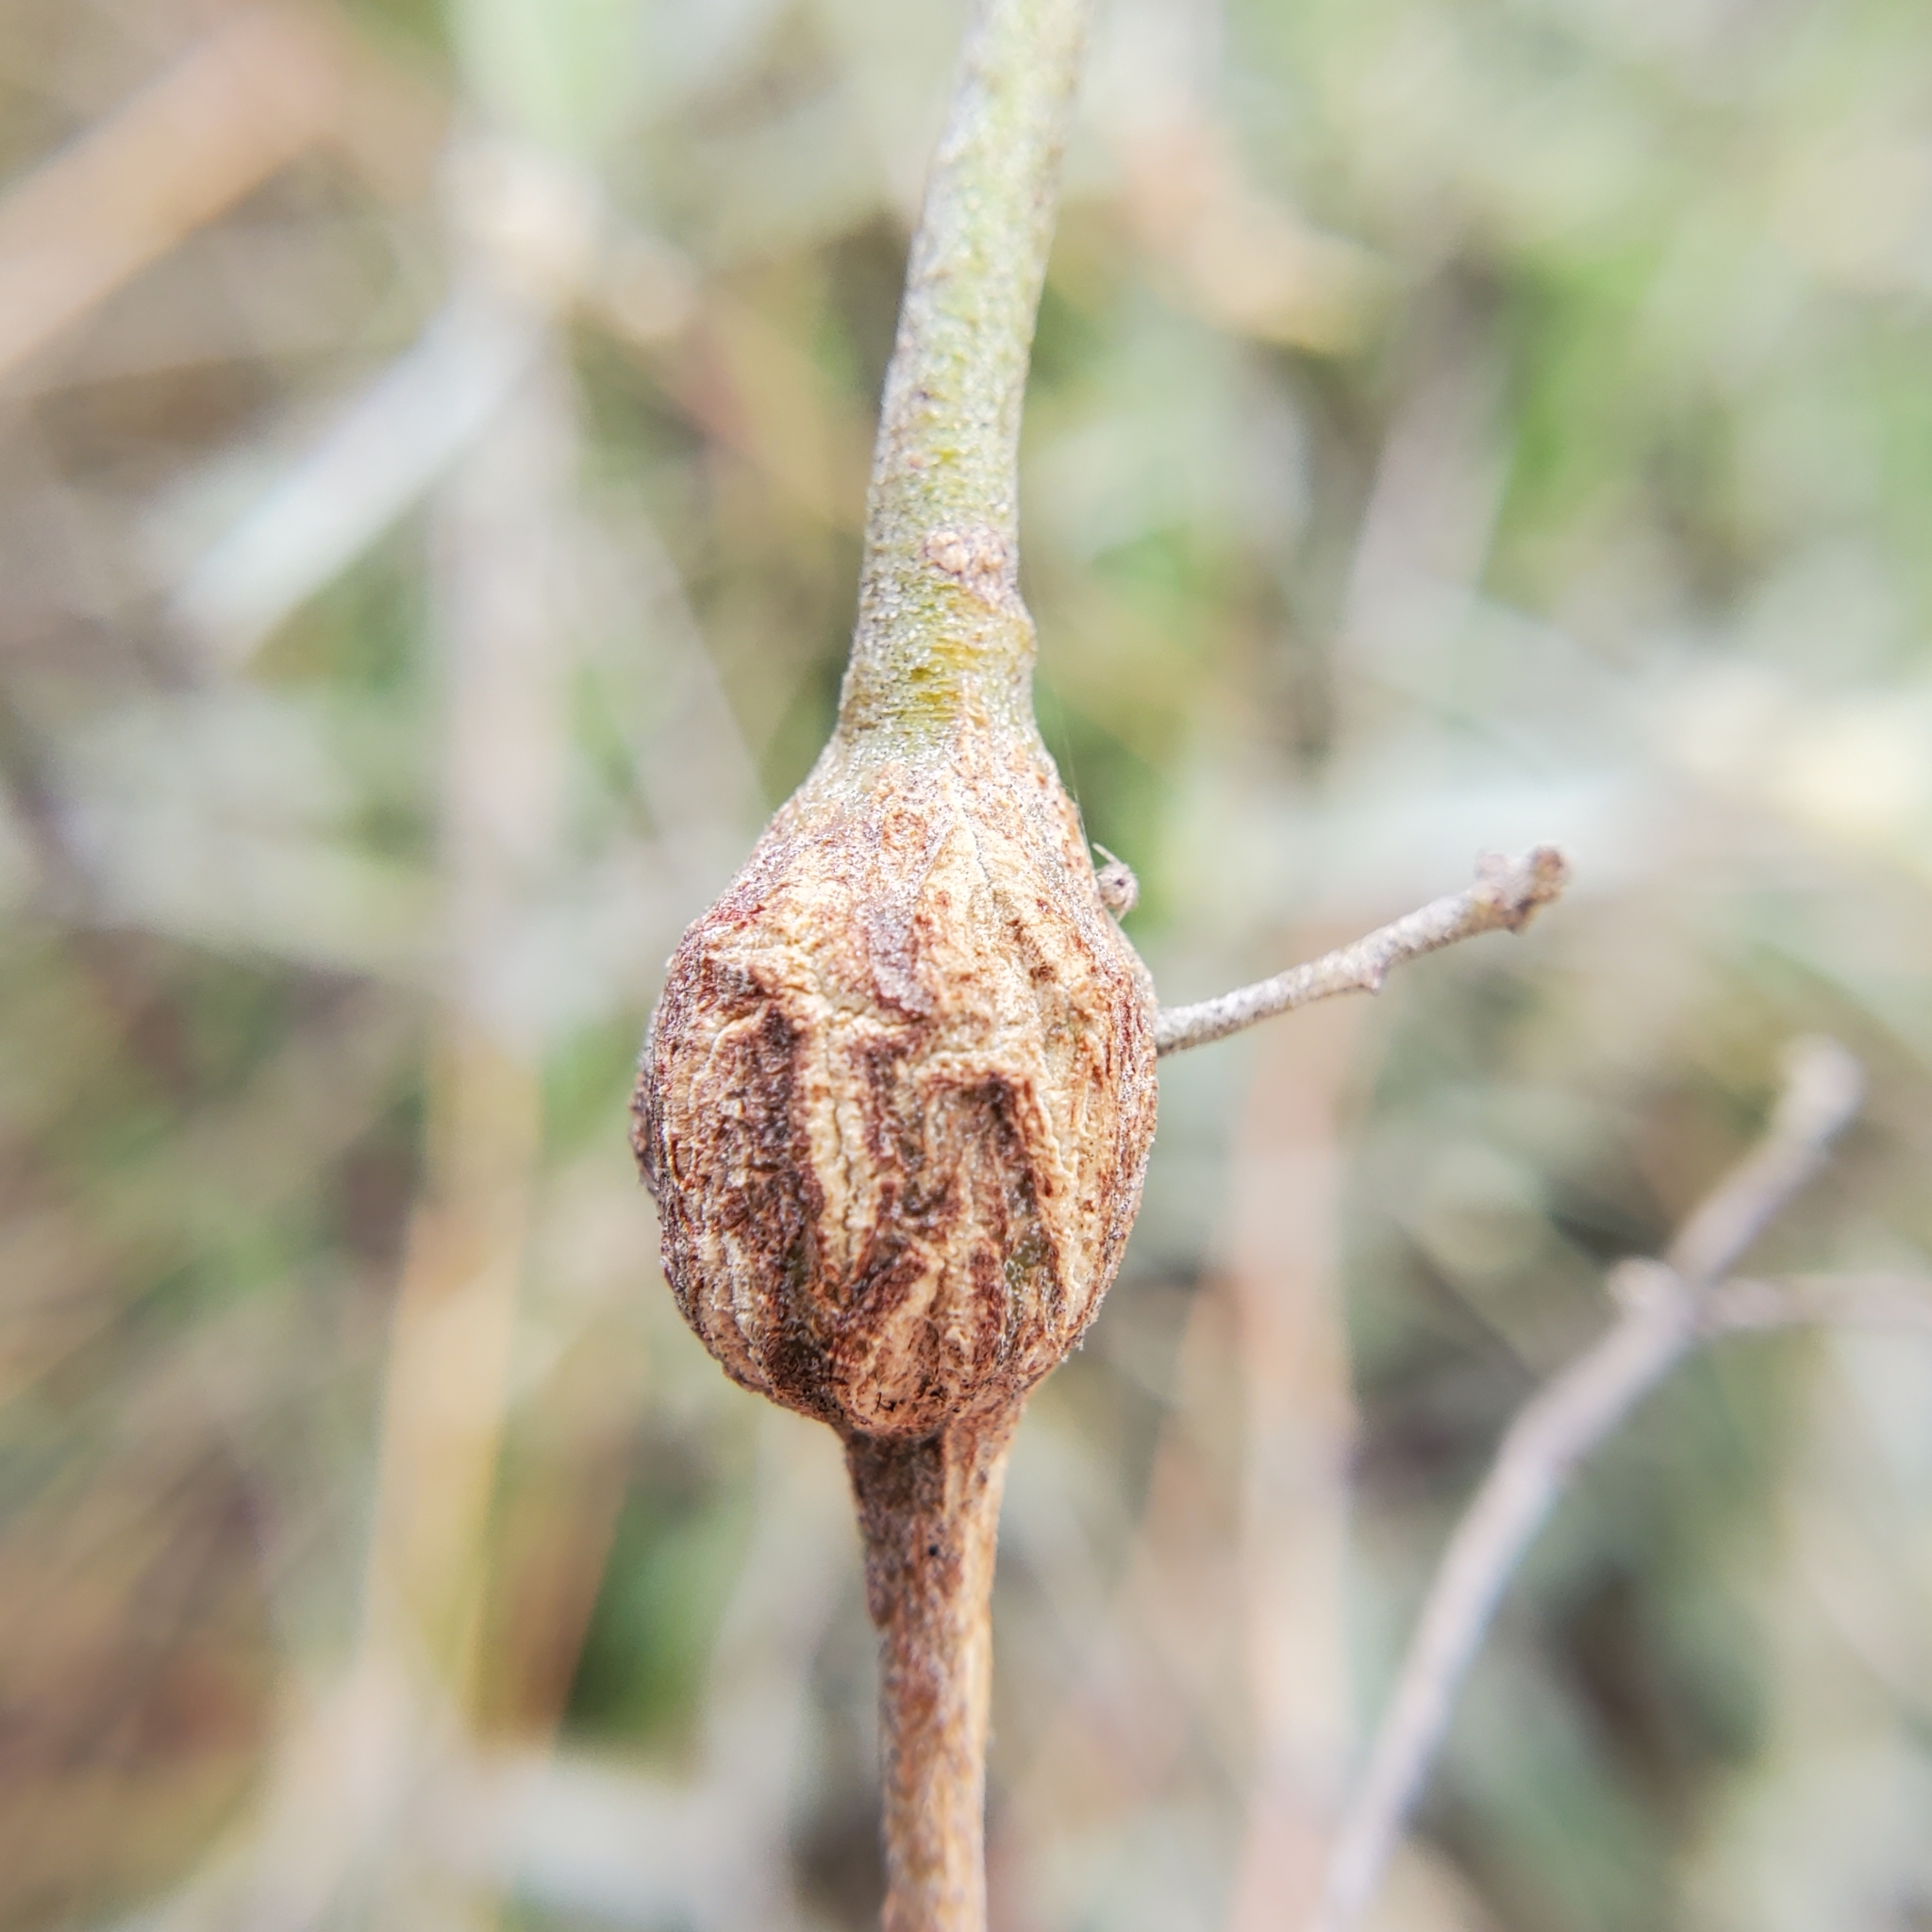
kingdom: Plantae
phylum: Tracheophyta
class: Magnoliopsida
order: Malpighiales
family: Euphorbiaceae
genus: Croton
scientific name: Croton californicus
